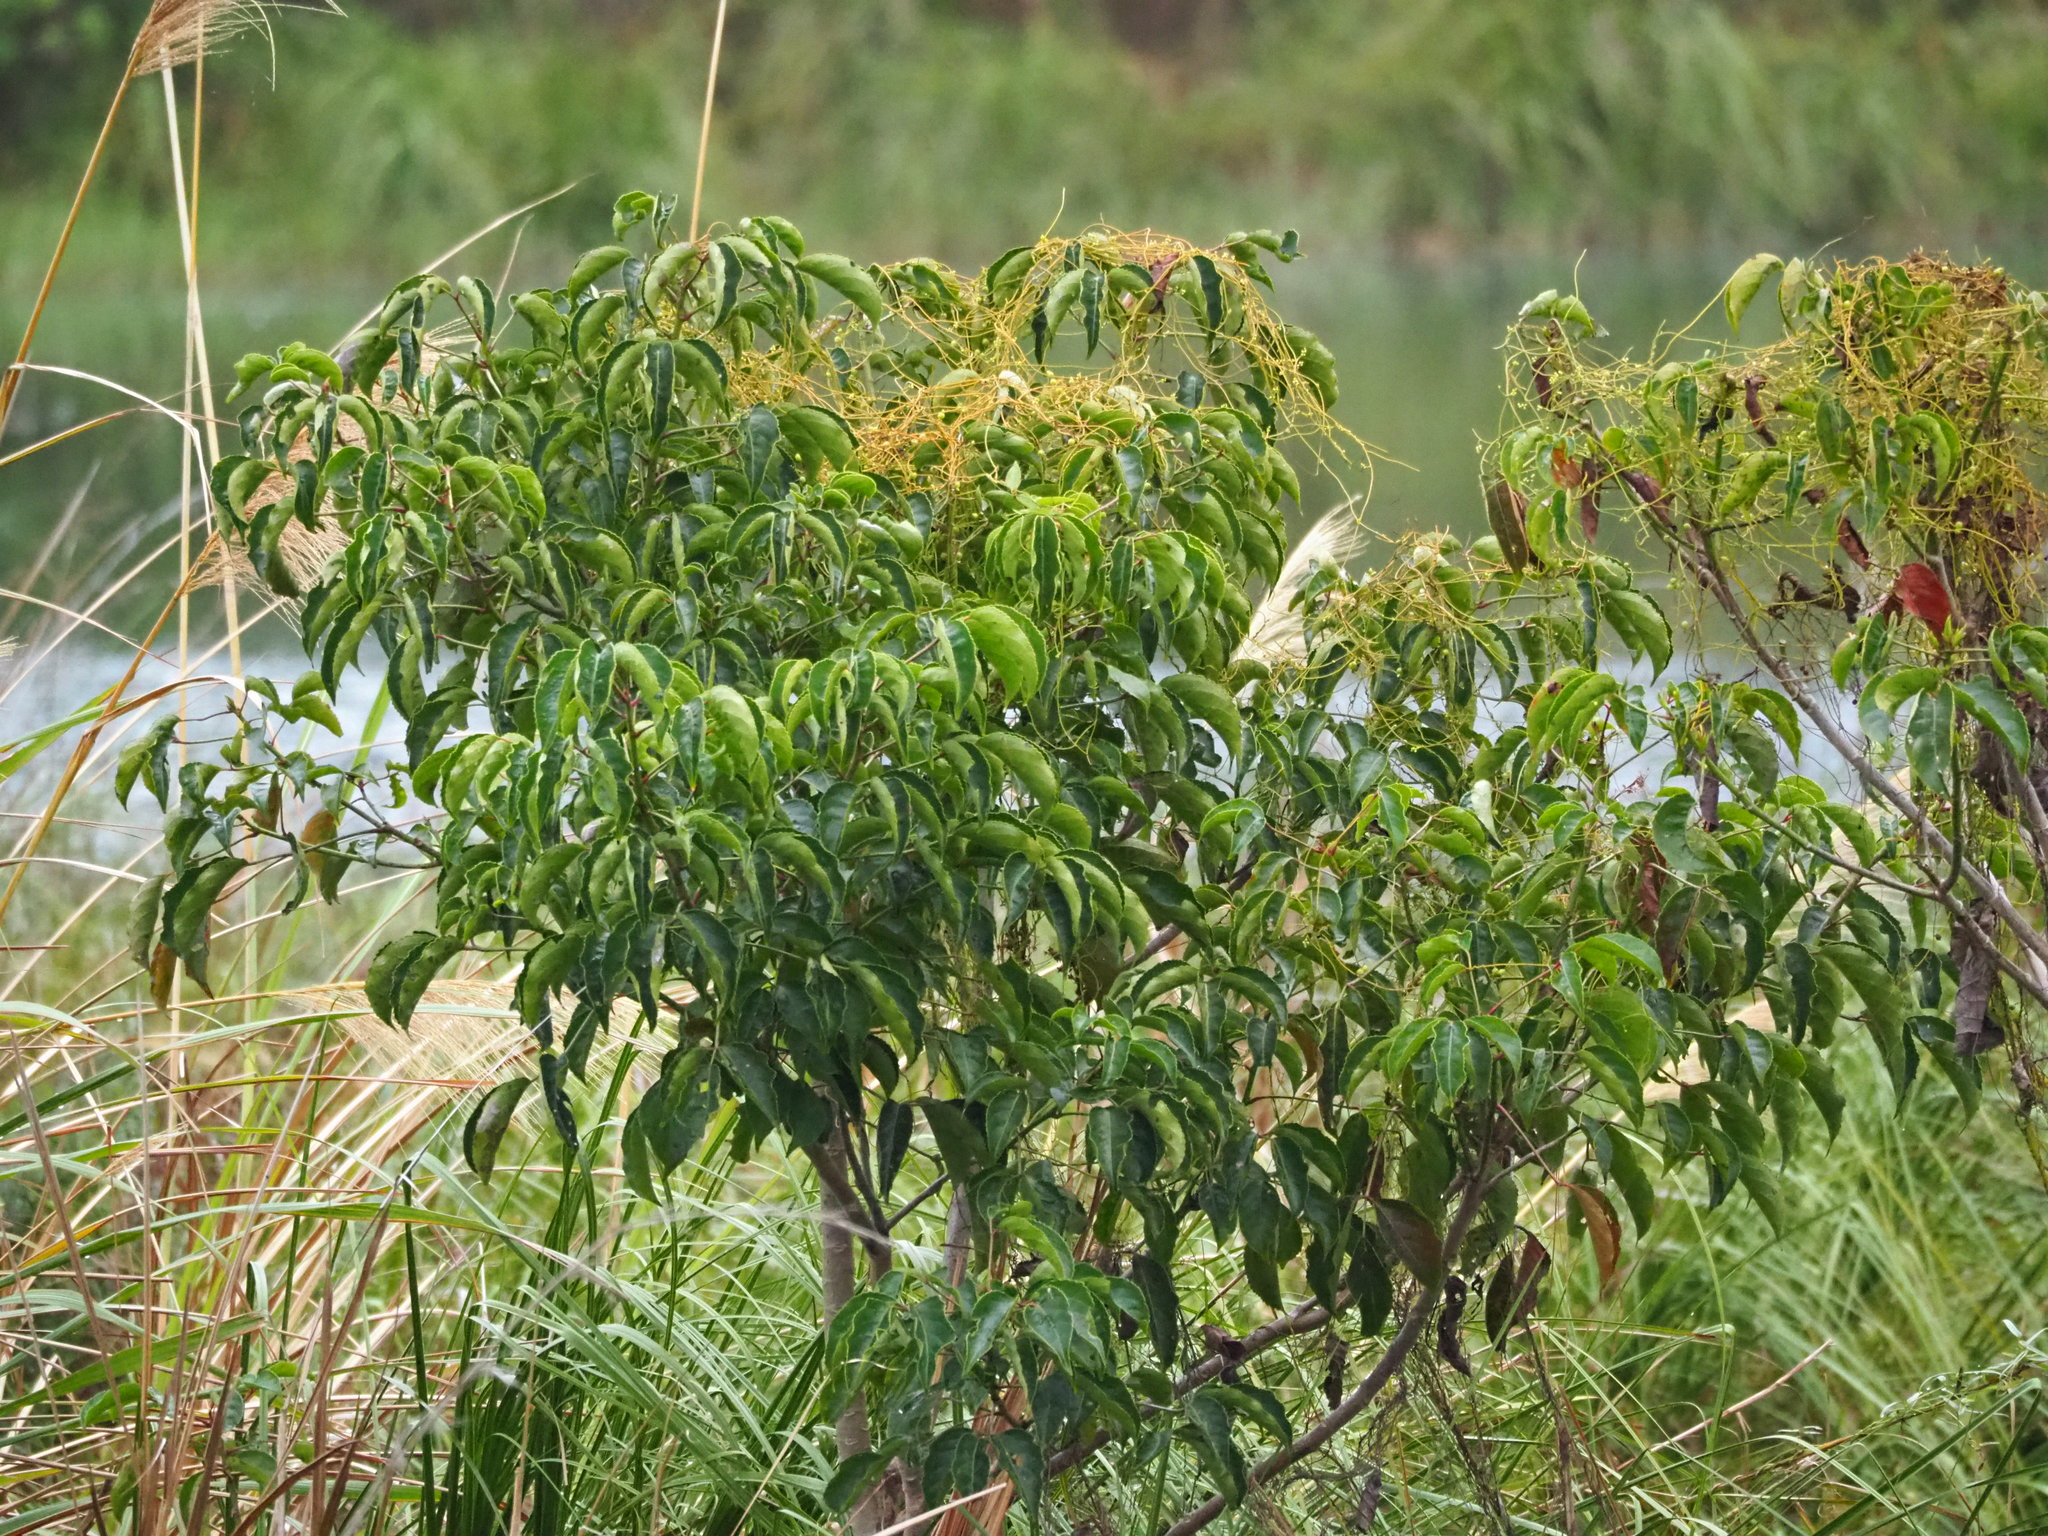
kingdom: Plantae
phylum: Tracheophyta
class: Magnoliopsida
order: Malpighiales
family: Phyllanthaceae
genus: Bischofia
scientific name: Bischofia javanica
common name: Javanese bishopwood
